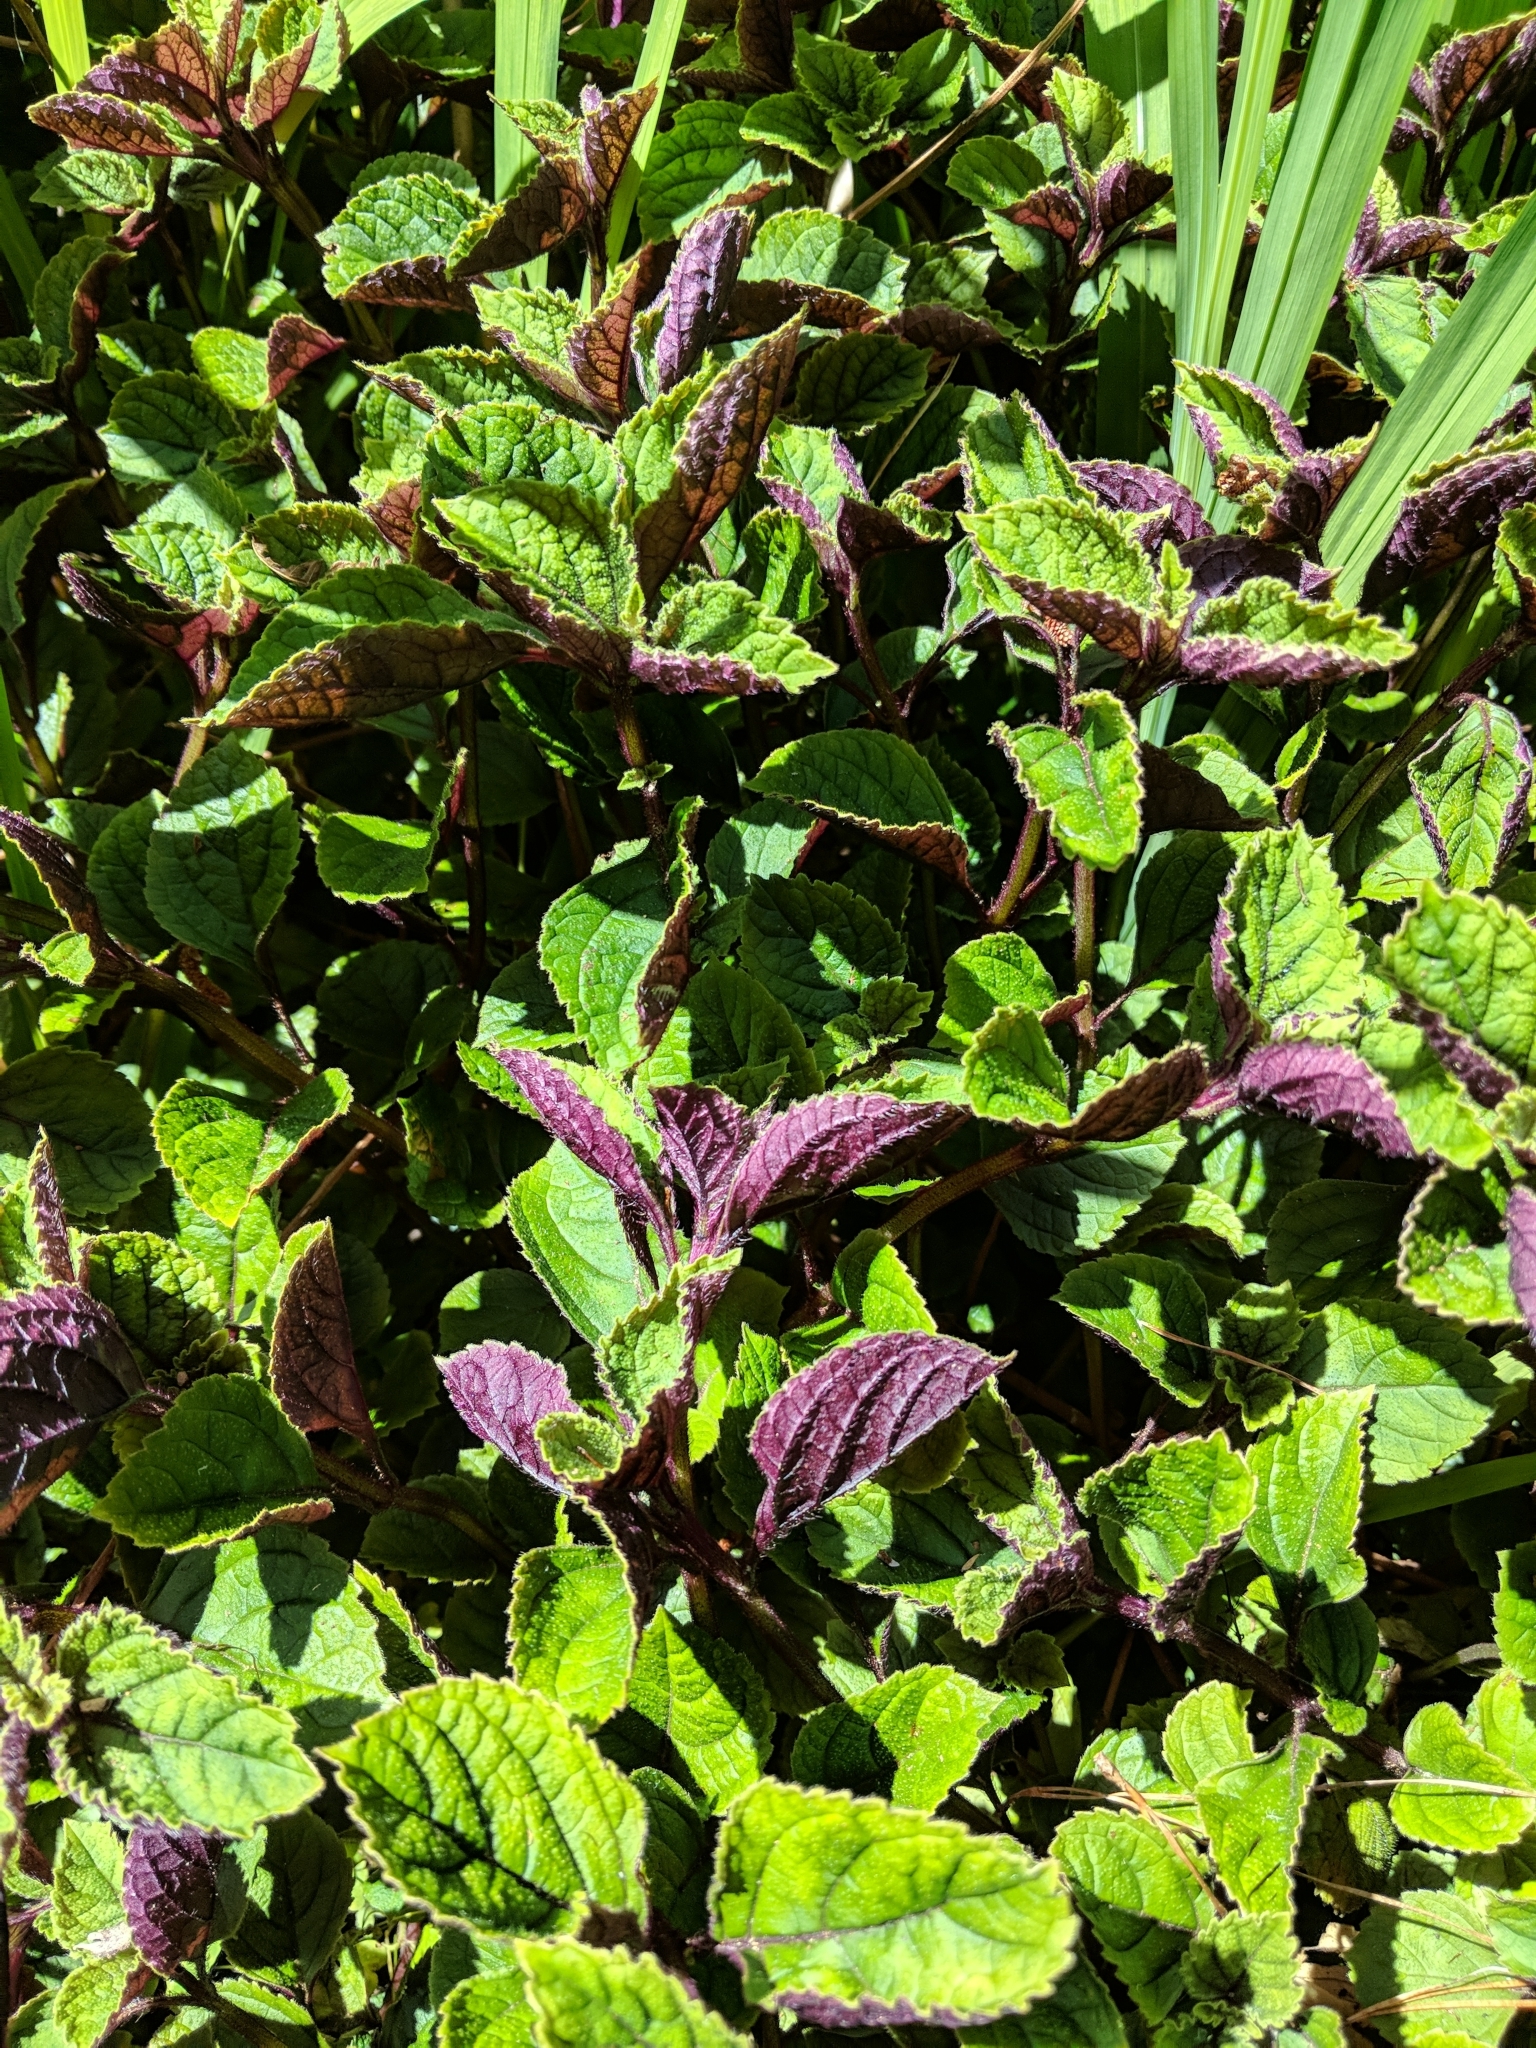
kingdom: Plantae
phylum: Tracheophyta
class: Magnoliopsida
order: Lamiales
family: Lamiaceae
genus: Plectranthus
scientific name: Plectranthus ciliatus
